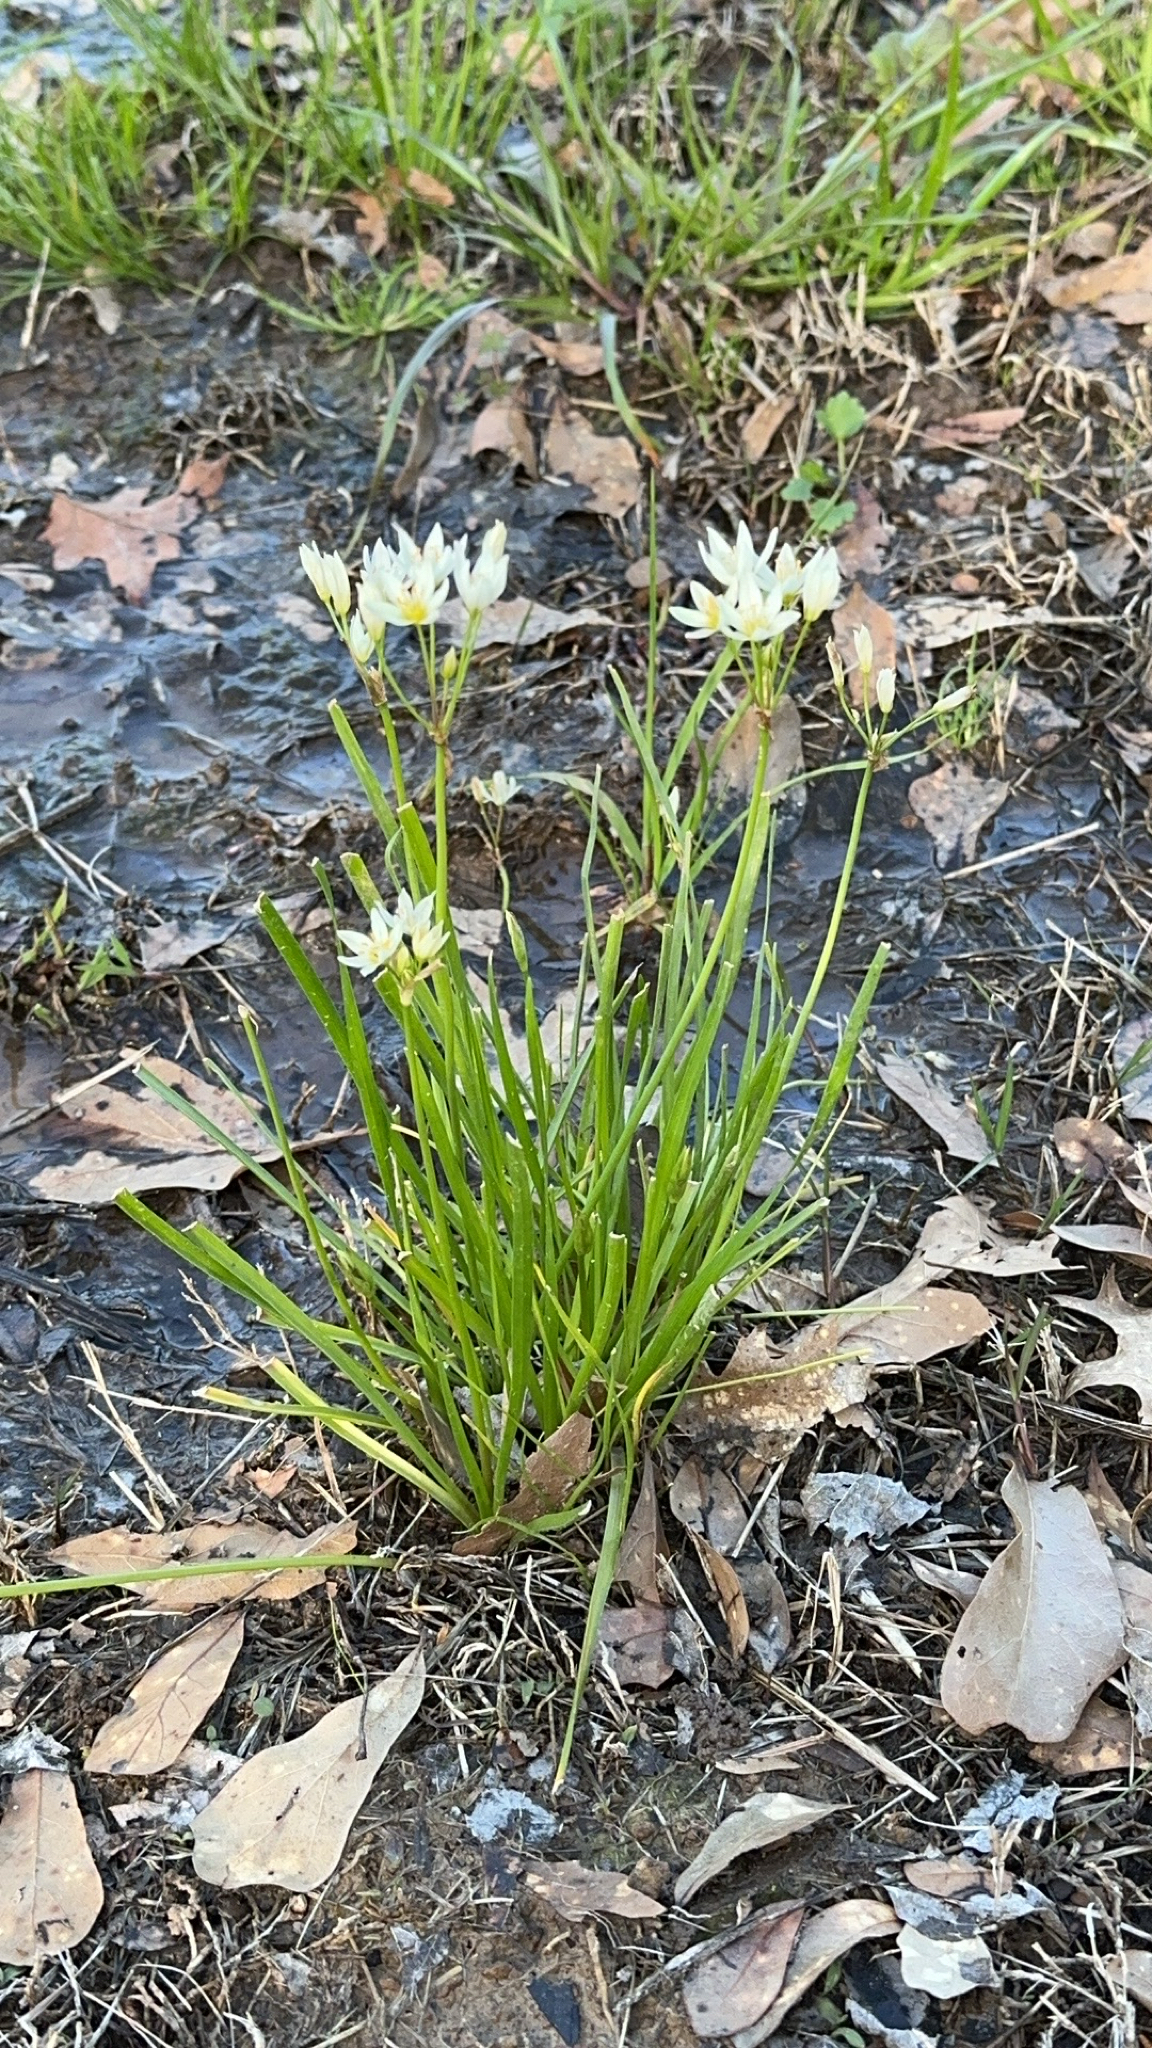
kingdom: Plantae
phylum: Tracheophyta
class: Liliopsida
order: Asparagales
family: Amaryllidaceae
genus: Nothoscordum
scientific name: Nothoscordum bivalve
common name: Crow-poison
